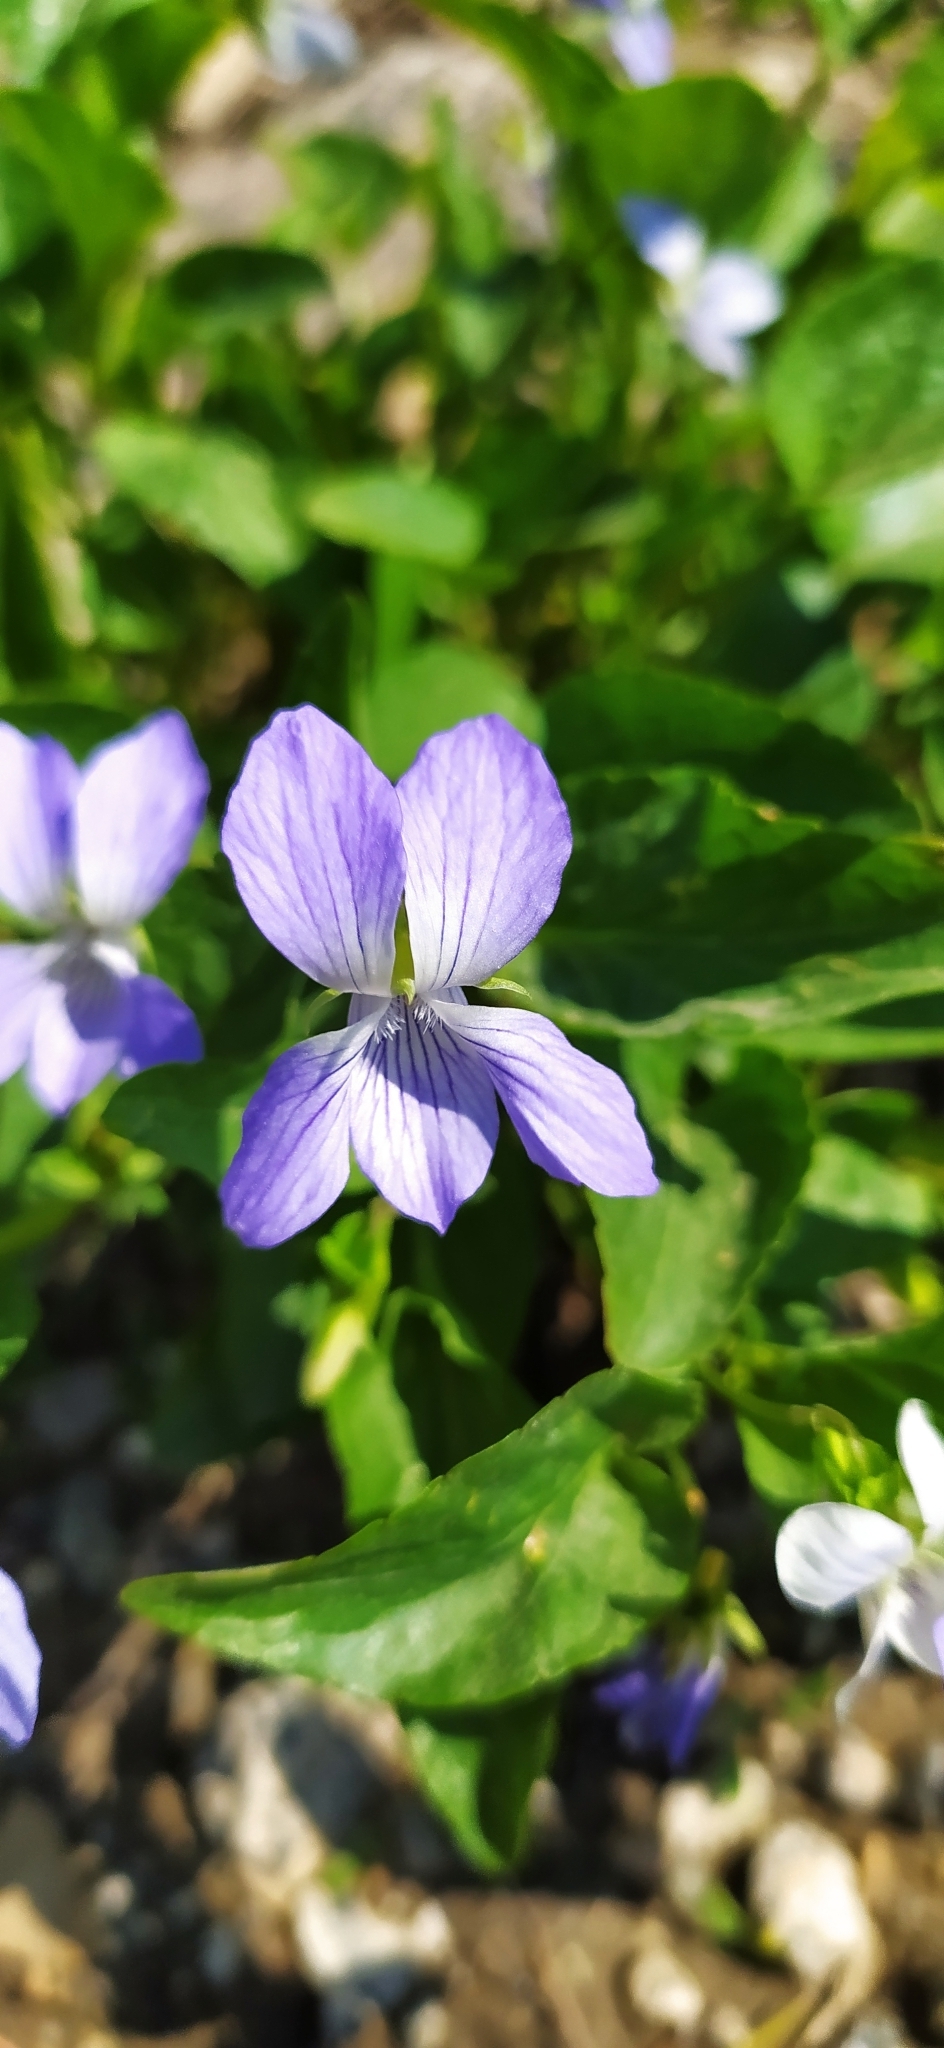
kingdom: Plantae
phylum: Tracheophyta
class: Magnoliopsida
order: Malpighiales
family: Violaceae
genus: Viola
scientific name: Viola canina
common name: Heath dog-violet
